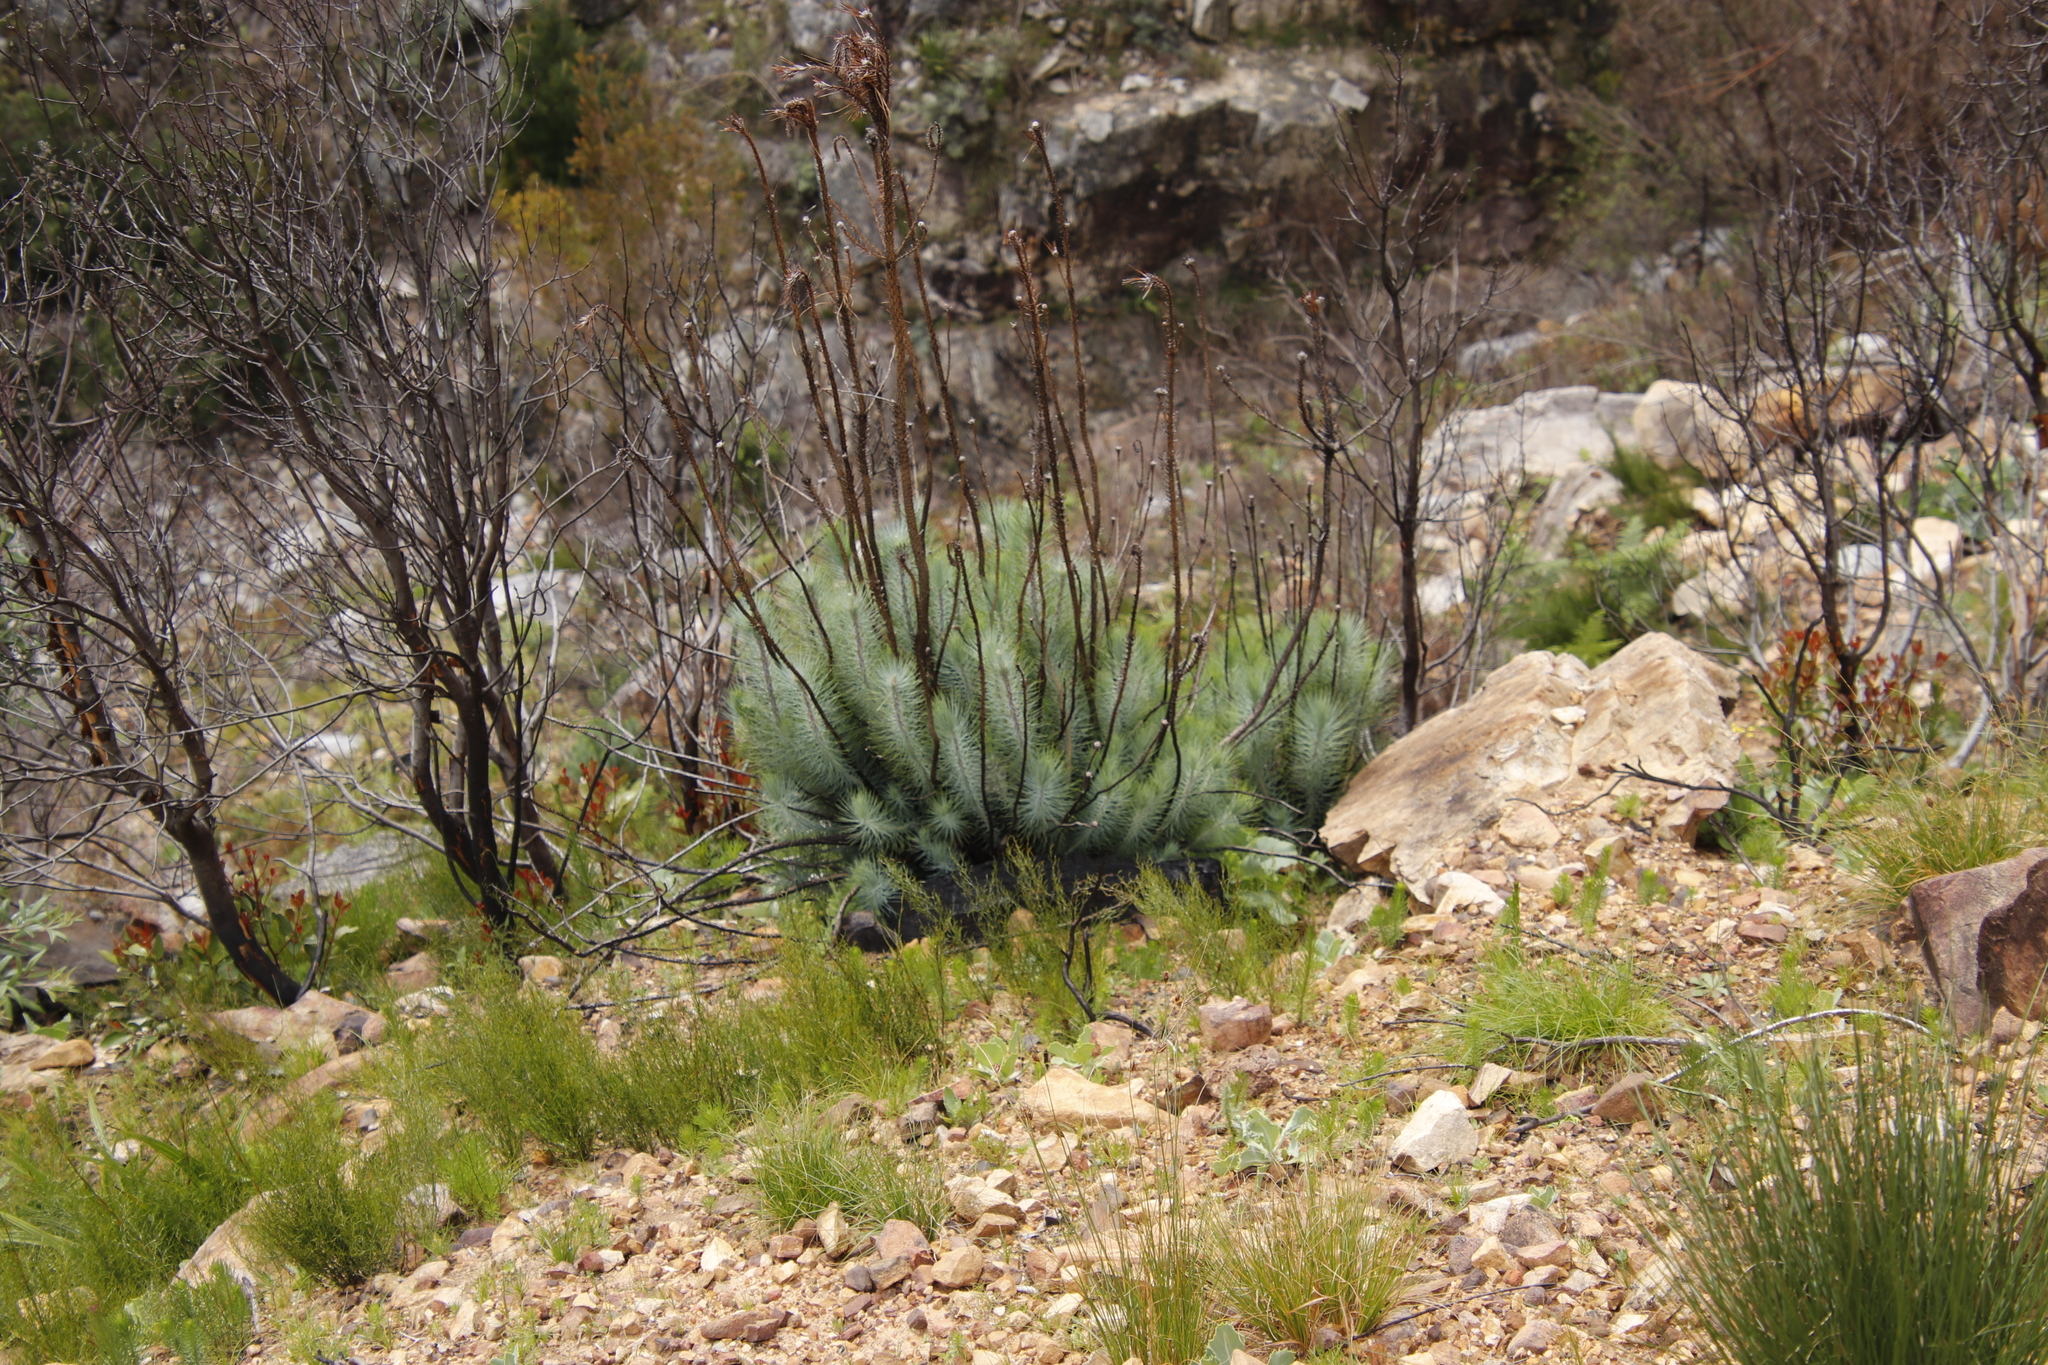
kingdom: Plantae
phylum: Tracheophyta
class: Pinopsida
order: Pinales
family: Pinaceae
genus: Pinus
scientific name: Pinus canariensis
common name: Canary islands pine
